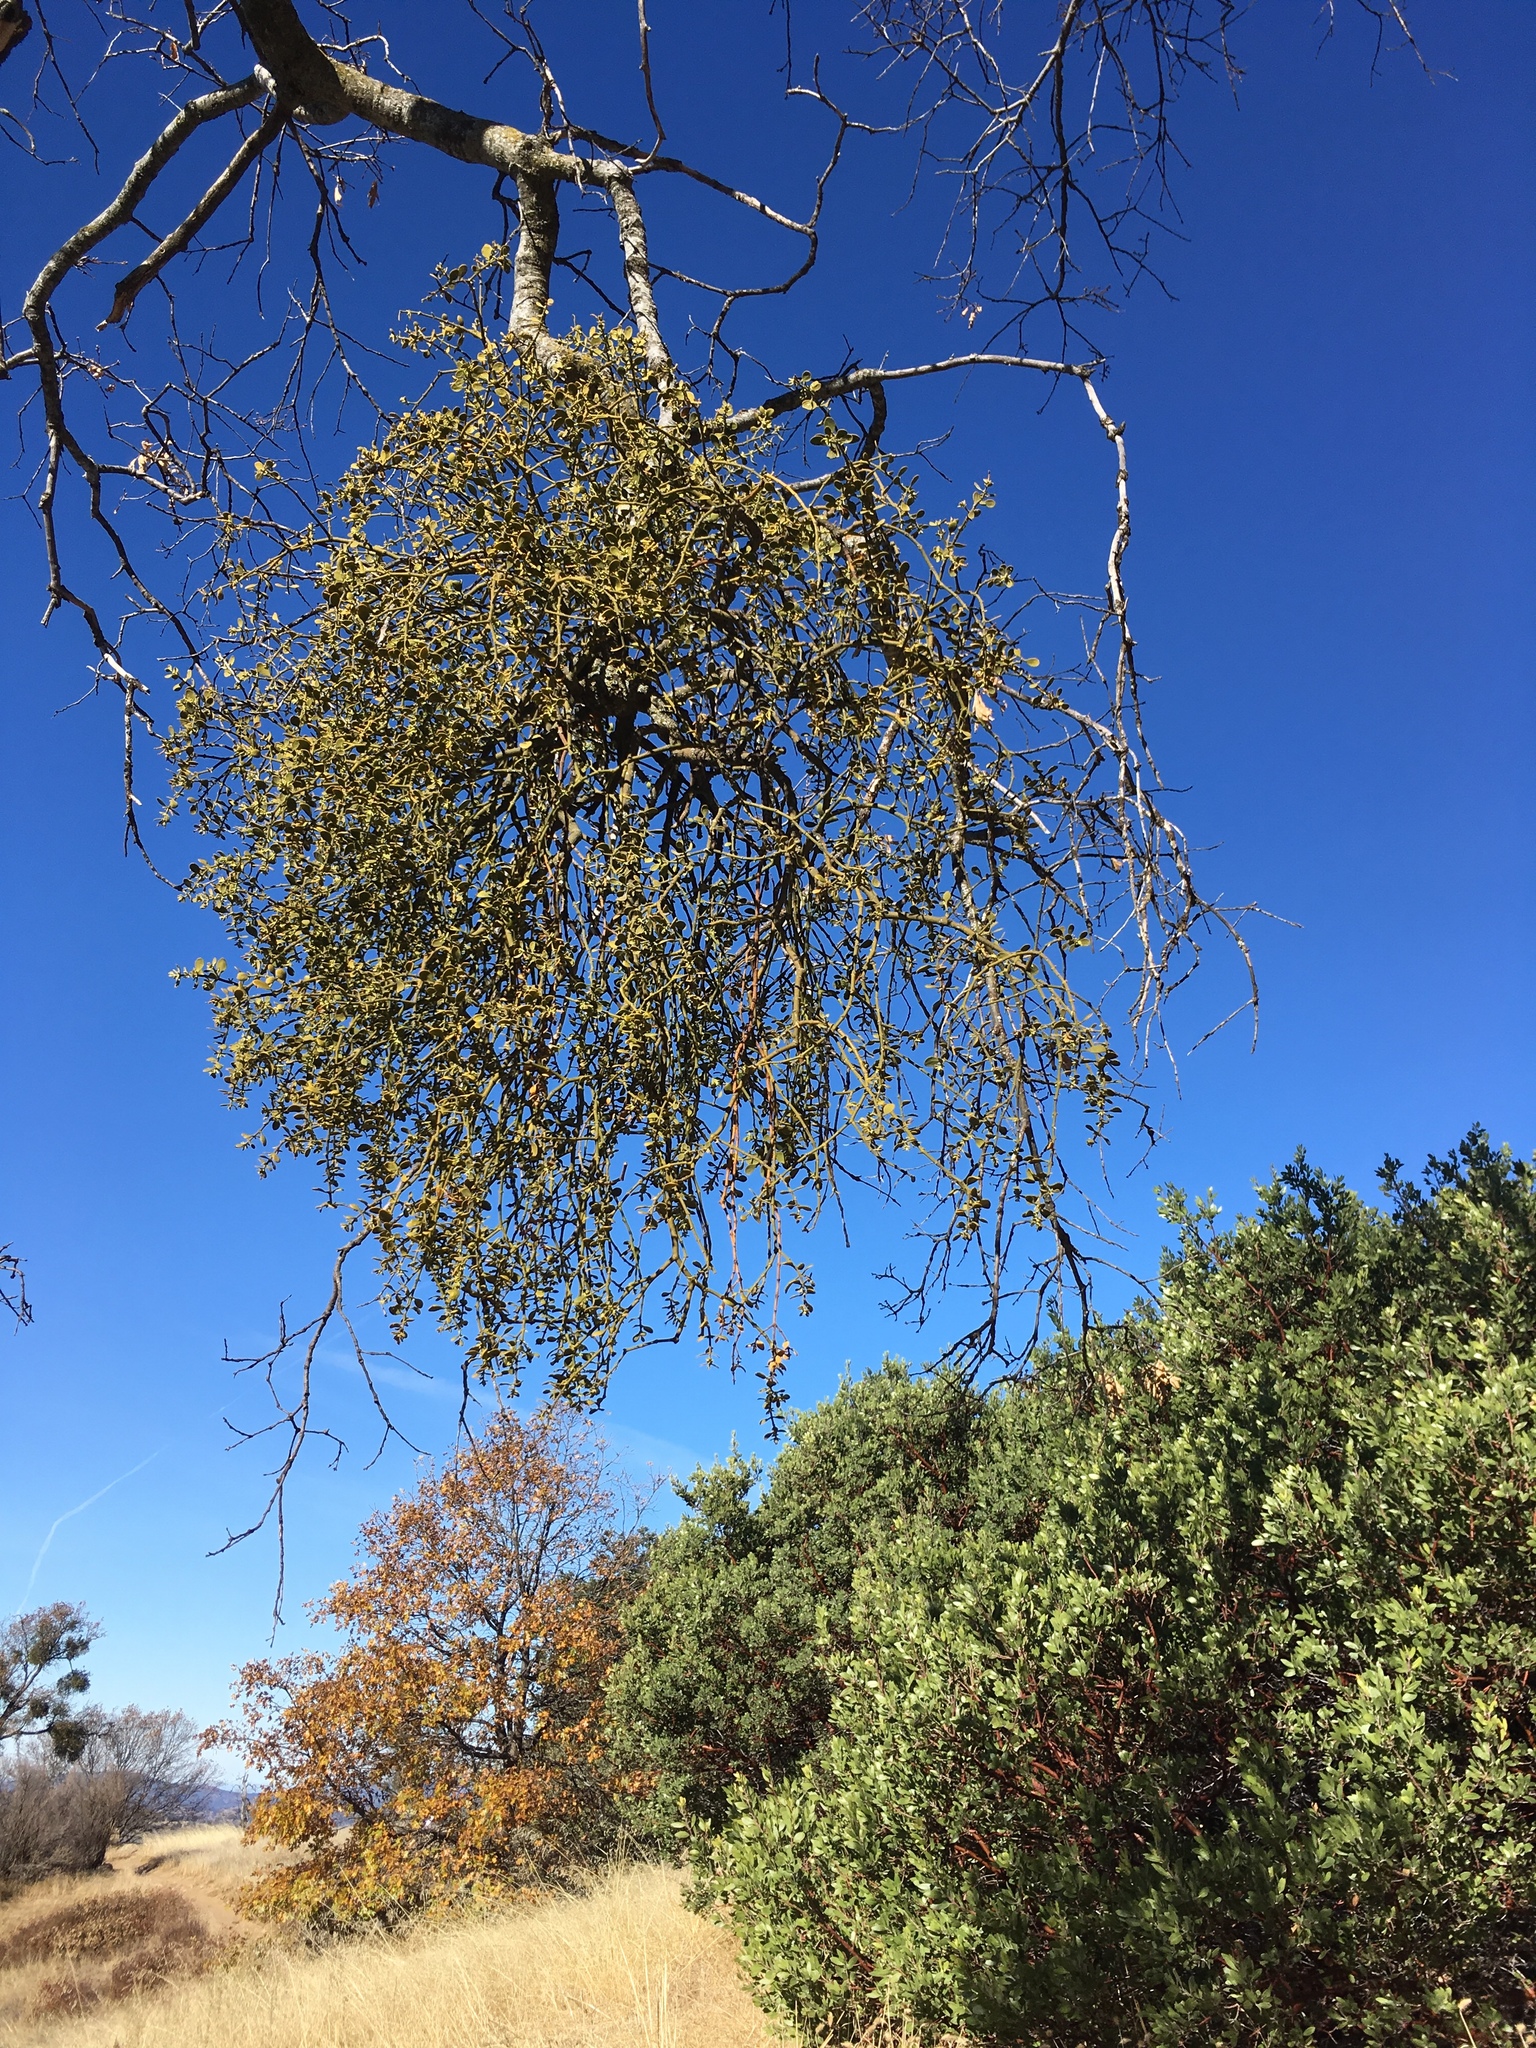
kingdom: Plantae
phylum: Tracheophyta
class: Magnoliopsida
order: Santalales
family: Viscaceae
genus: Phoradendron
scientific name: Phoradendron leucarpum
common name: Pacific mistletoe
